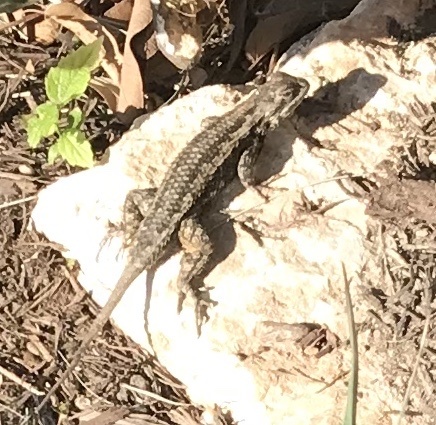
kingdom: Animalia
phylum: Chordata
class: Squamata
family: Phrynosomatidae
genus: Sceloporus
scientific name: Sceloporus olivaceus
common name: Texas spiny lizard
